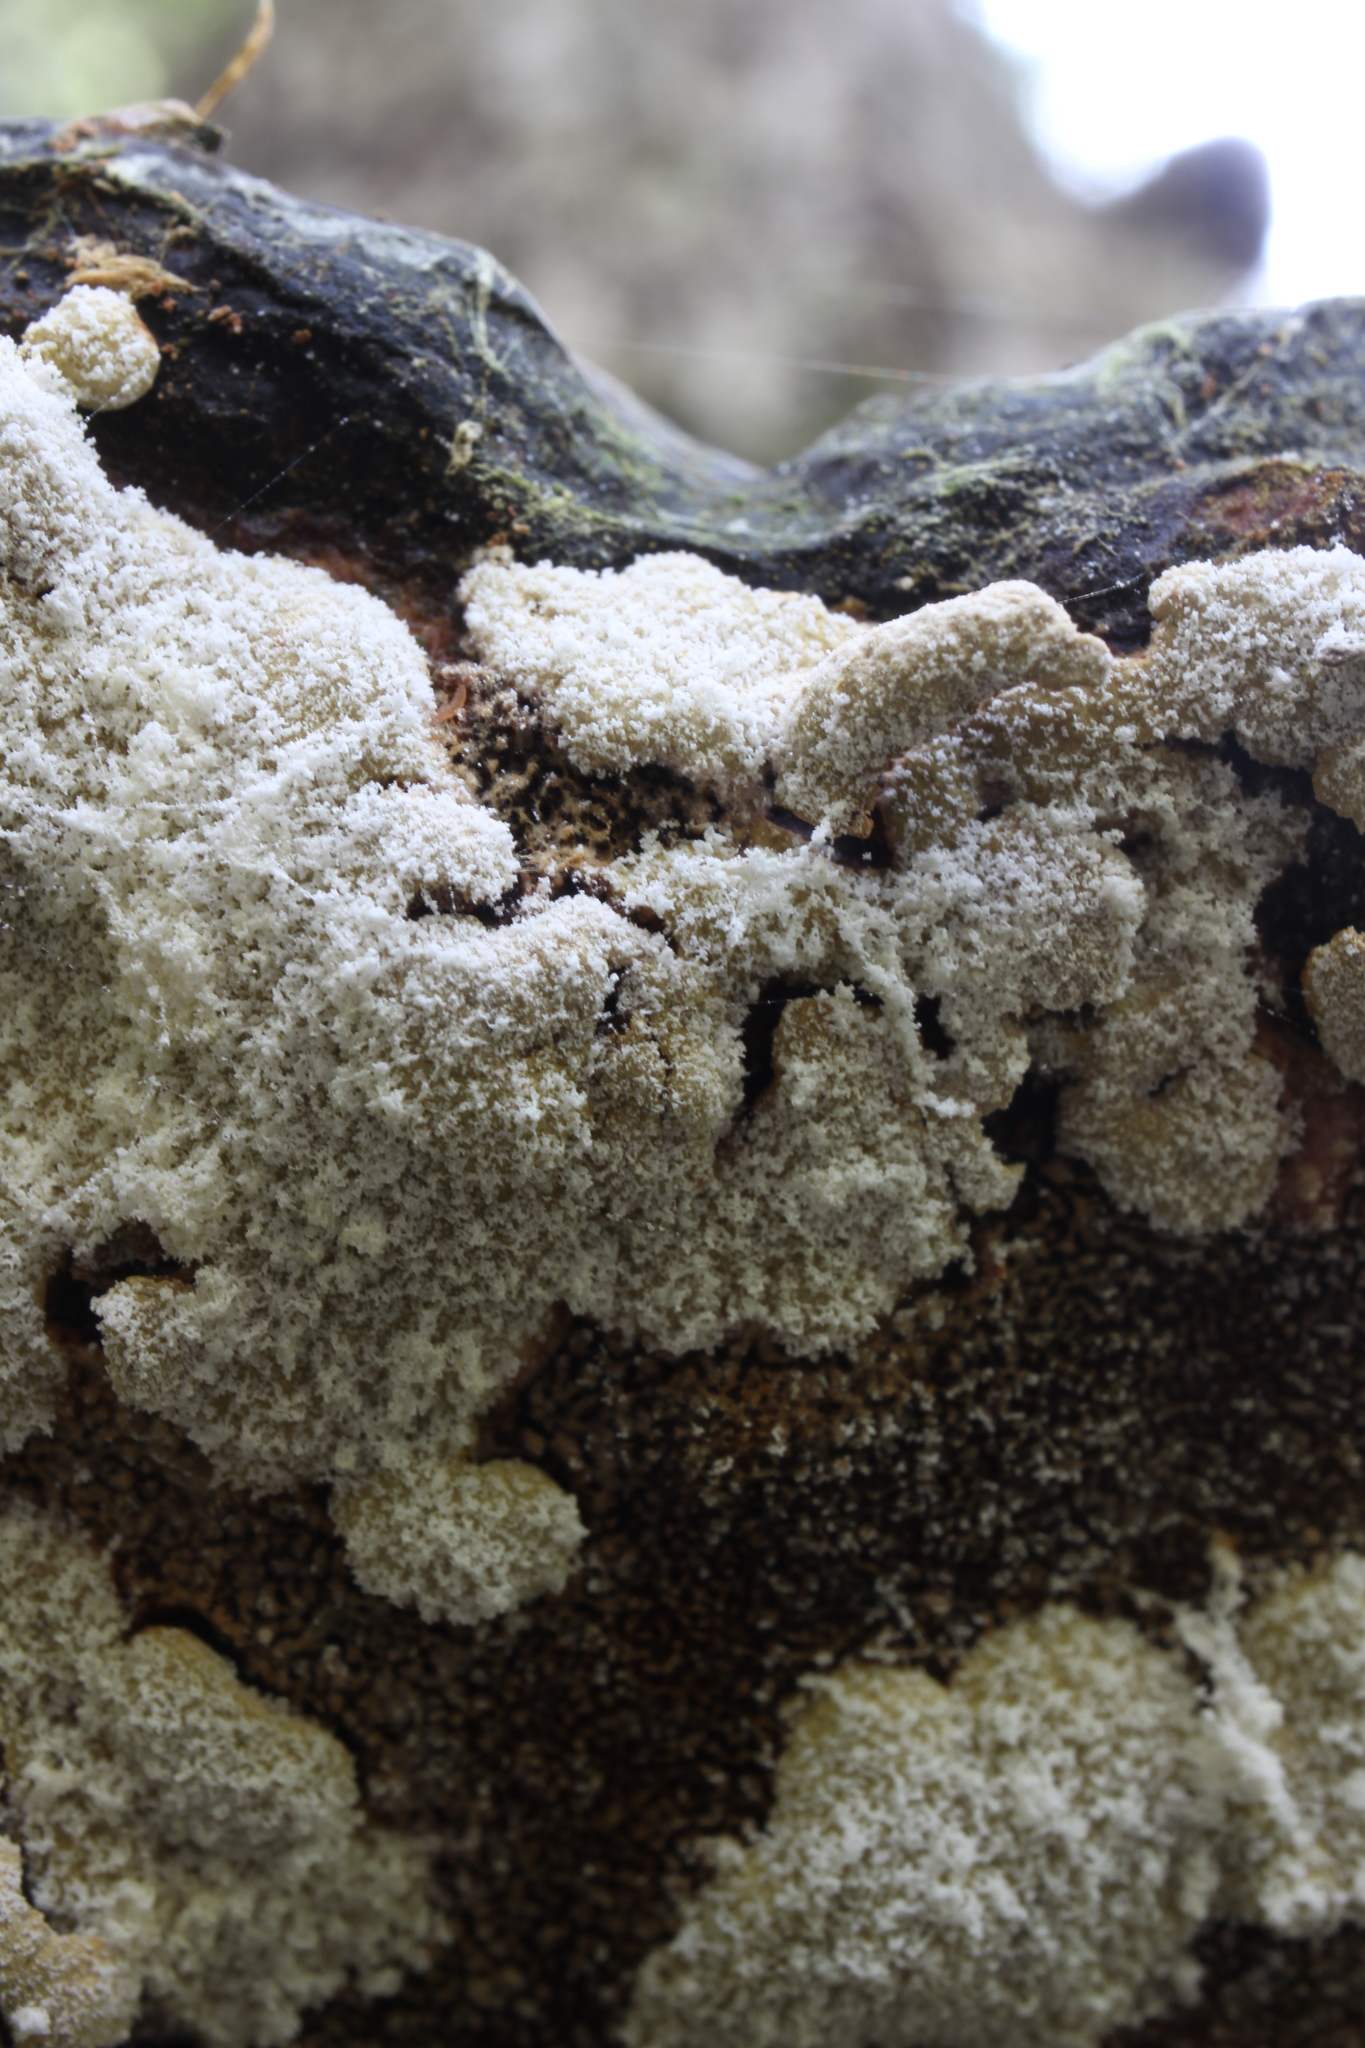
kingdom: Fungi
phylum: Ascomycota
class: Sordariomycetes
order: Hypocreales
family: Hypocreaceae
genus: Trichoderma
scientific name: Trichoderma pulvinatum
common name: Ochre cushion
